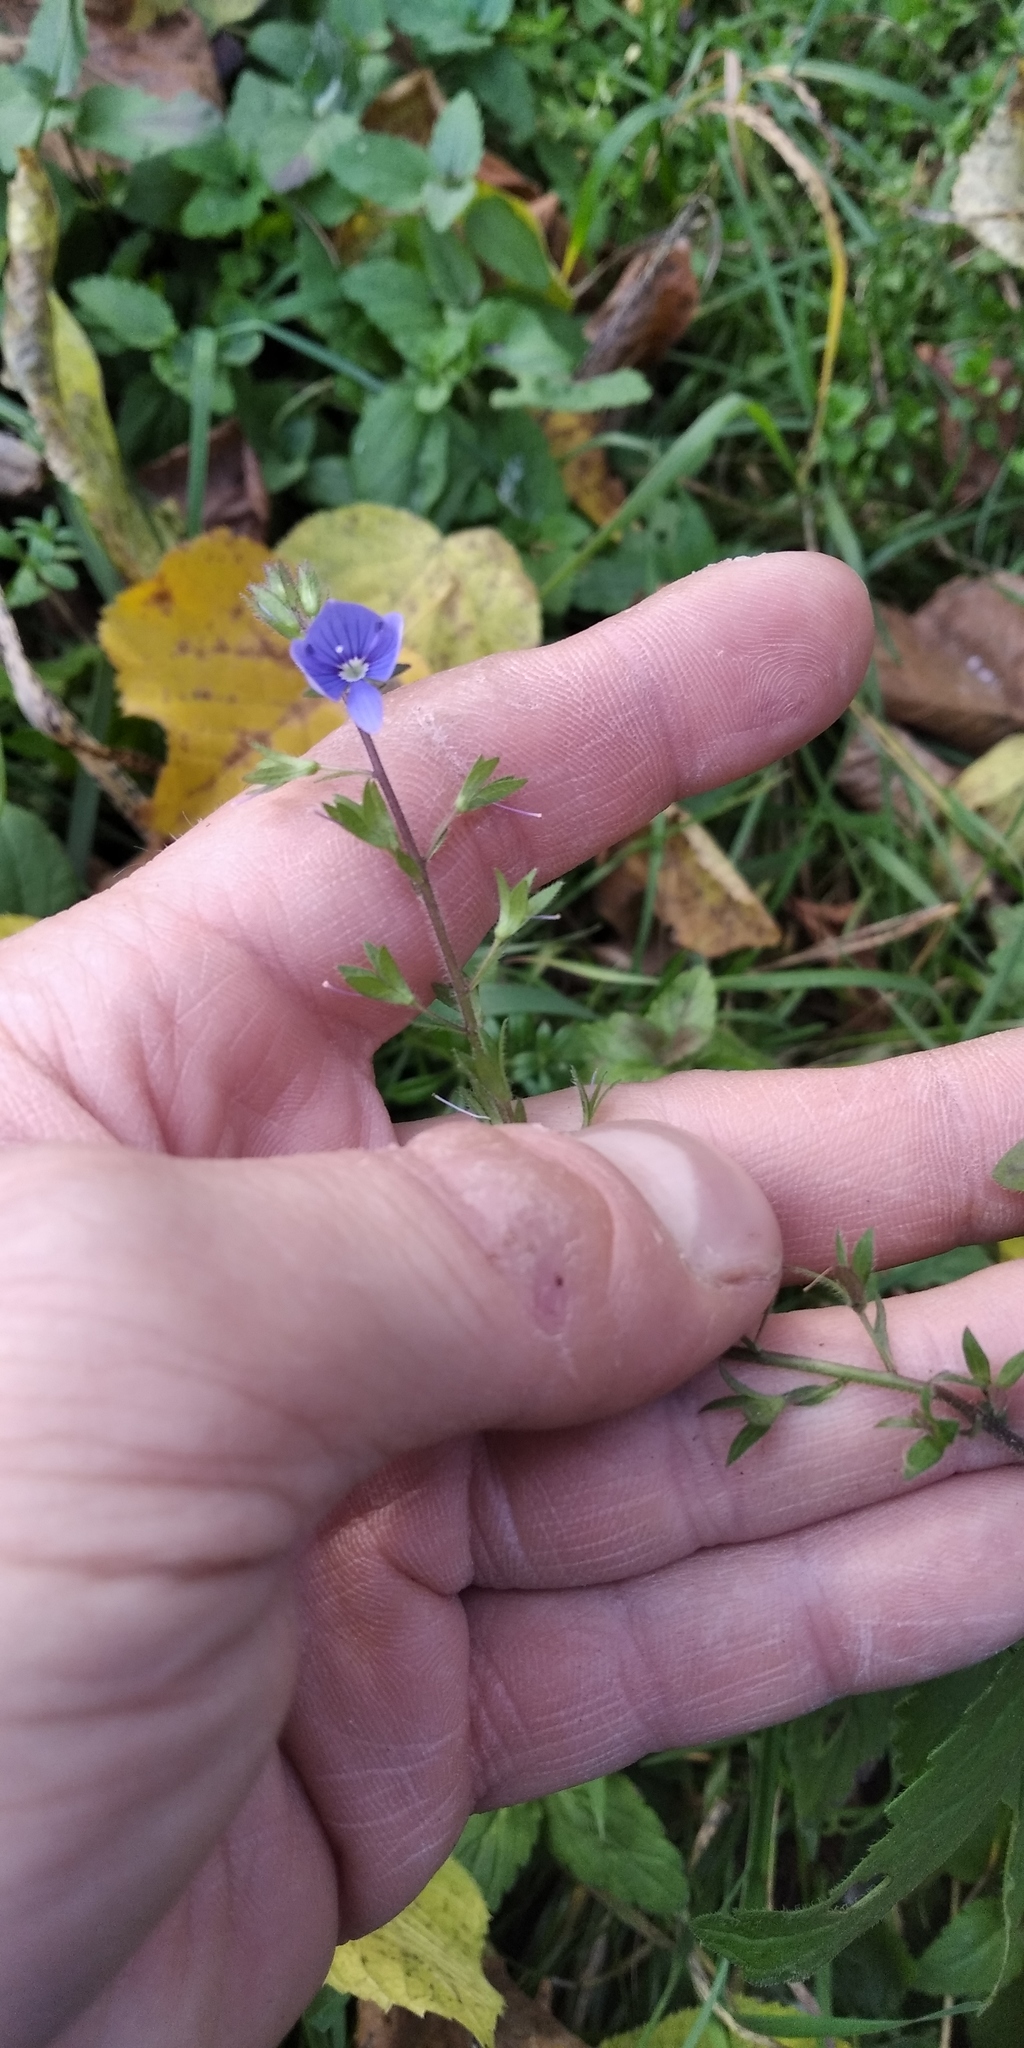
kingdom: Plantae
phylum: Tracheophyta
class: Magnoliopsida
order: Lamiales
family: Plantaginaceae
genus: Veronica
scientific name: Veronica chamaedrys
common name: Germander speedwell
